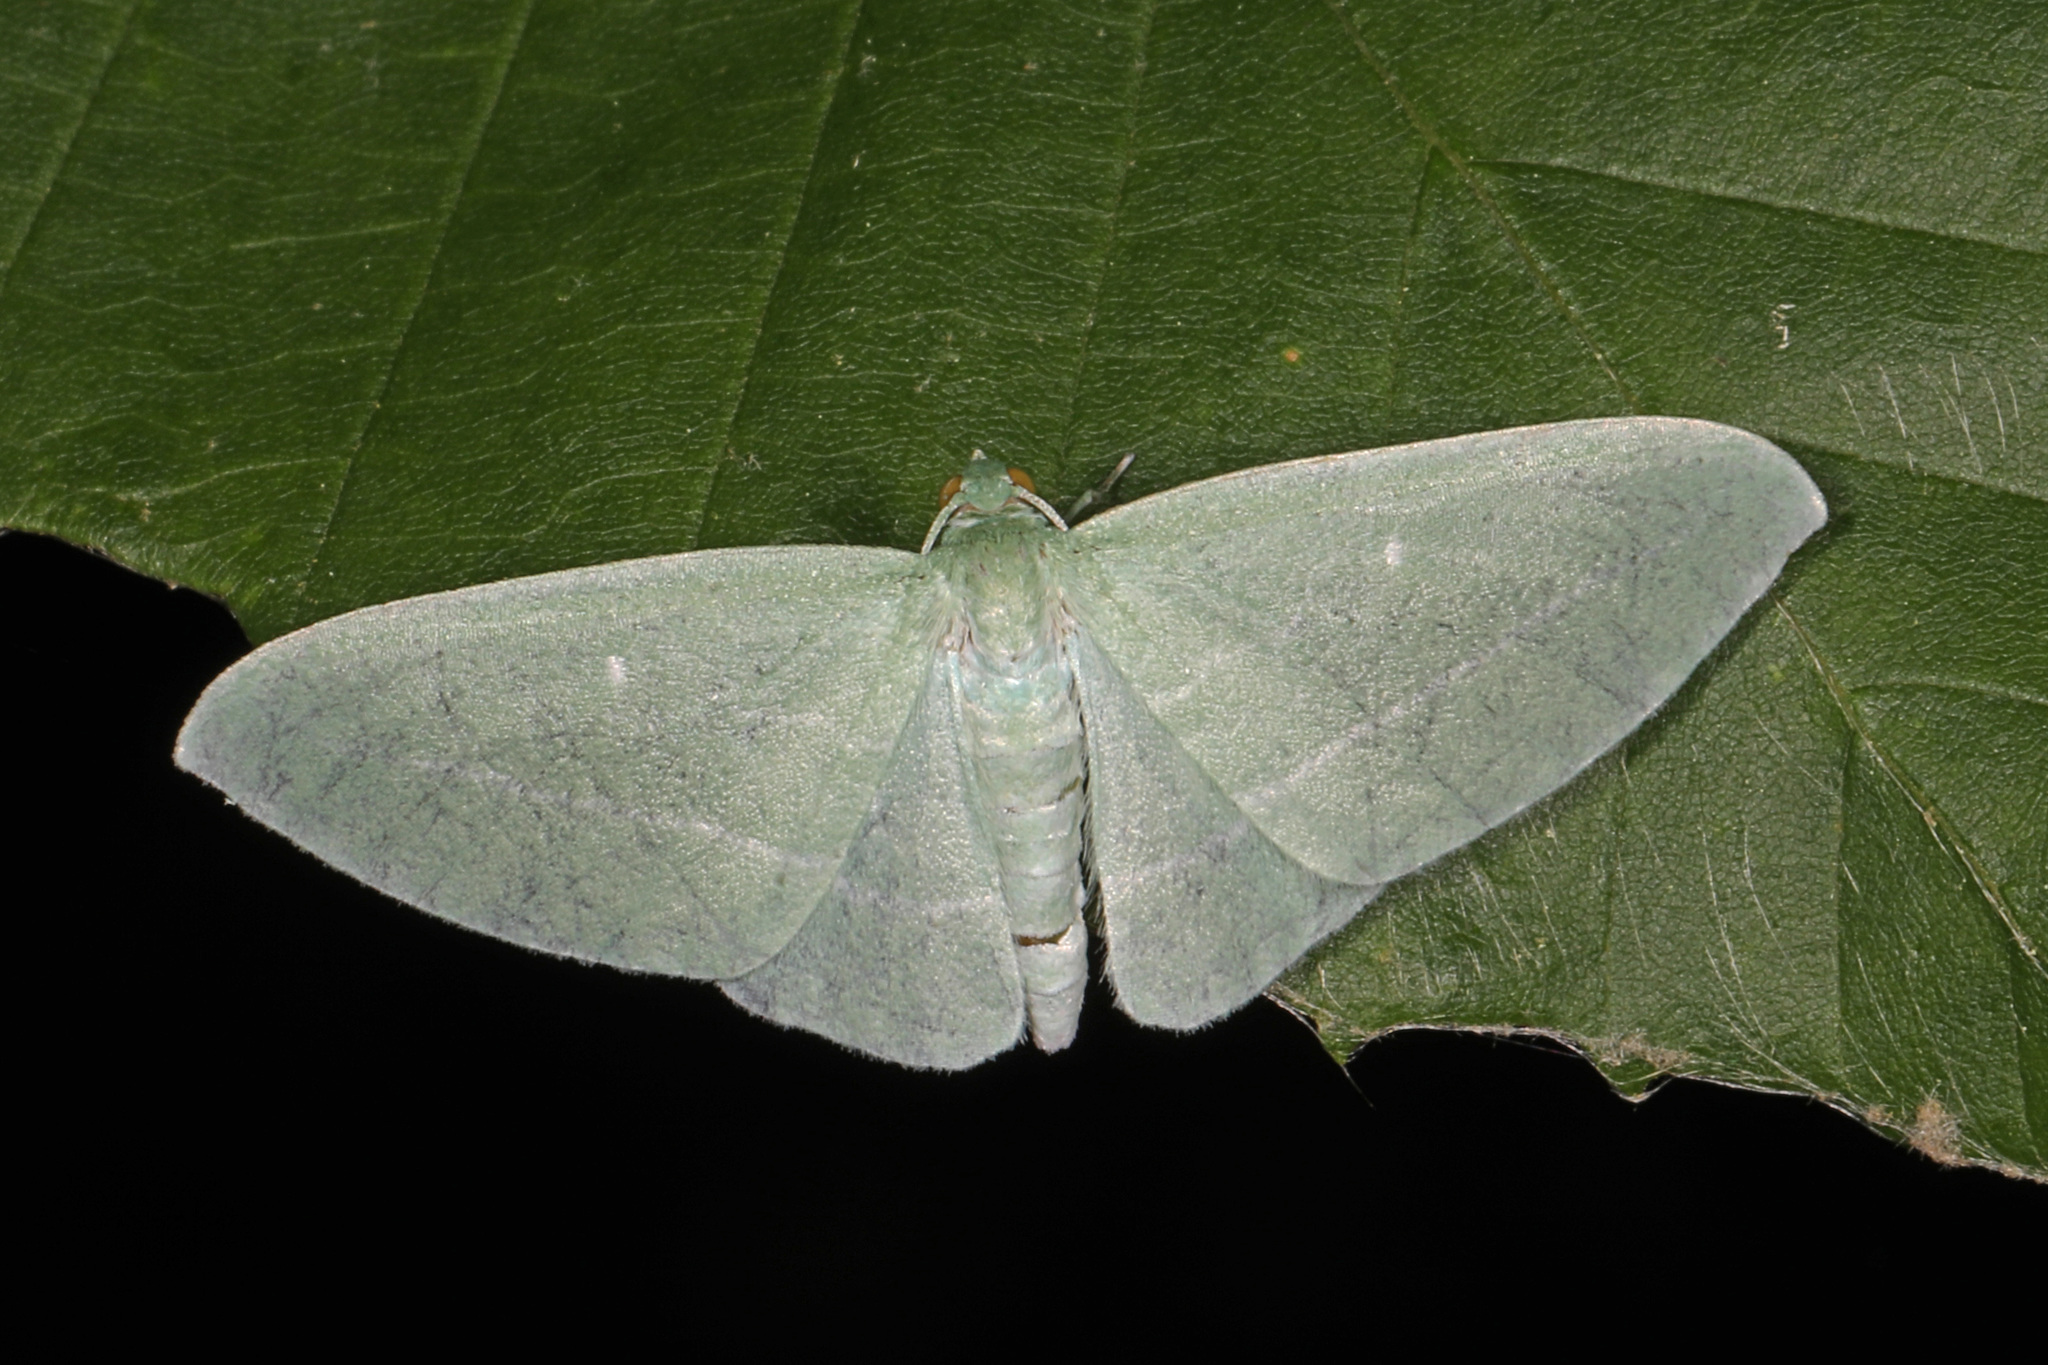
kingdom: Animalia
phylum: Arthropoda
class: Insecta
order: Lepidoptera
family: Geometridae
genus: Dyspteris
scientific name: Dyspteris abortivaria
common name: Bad-wing
